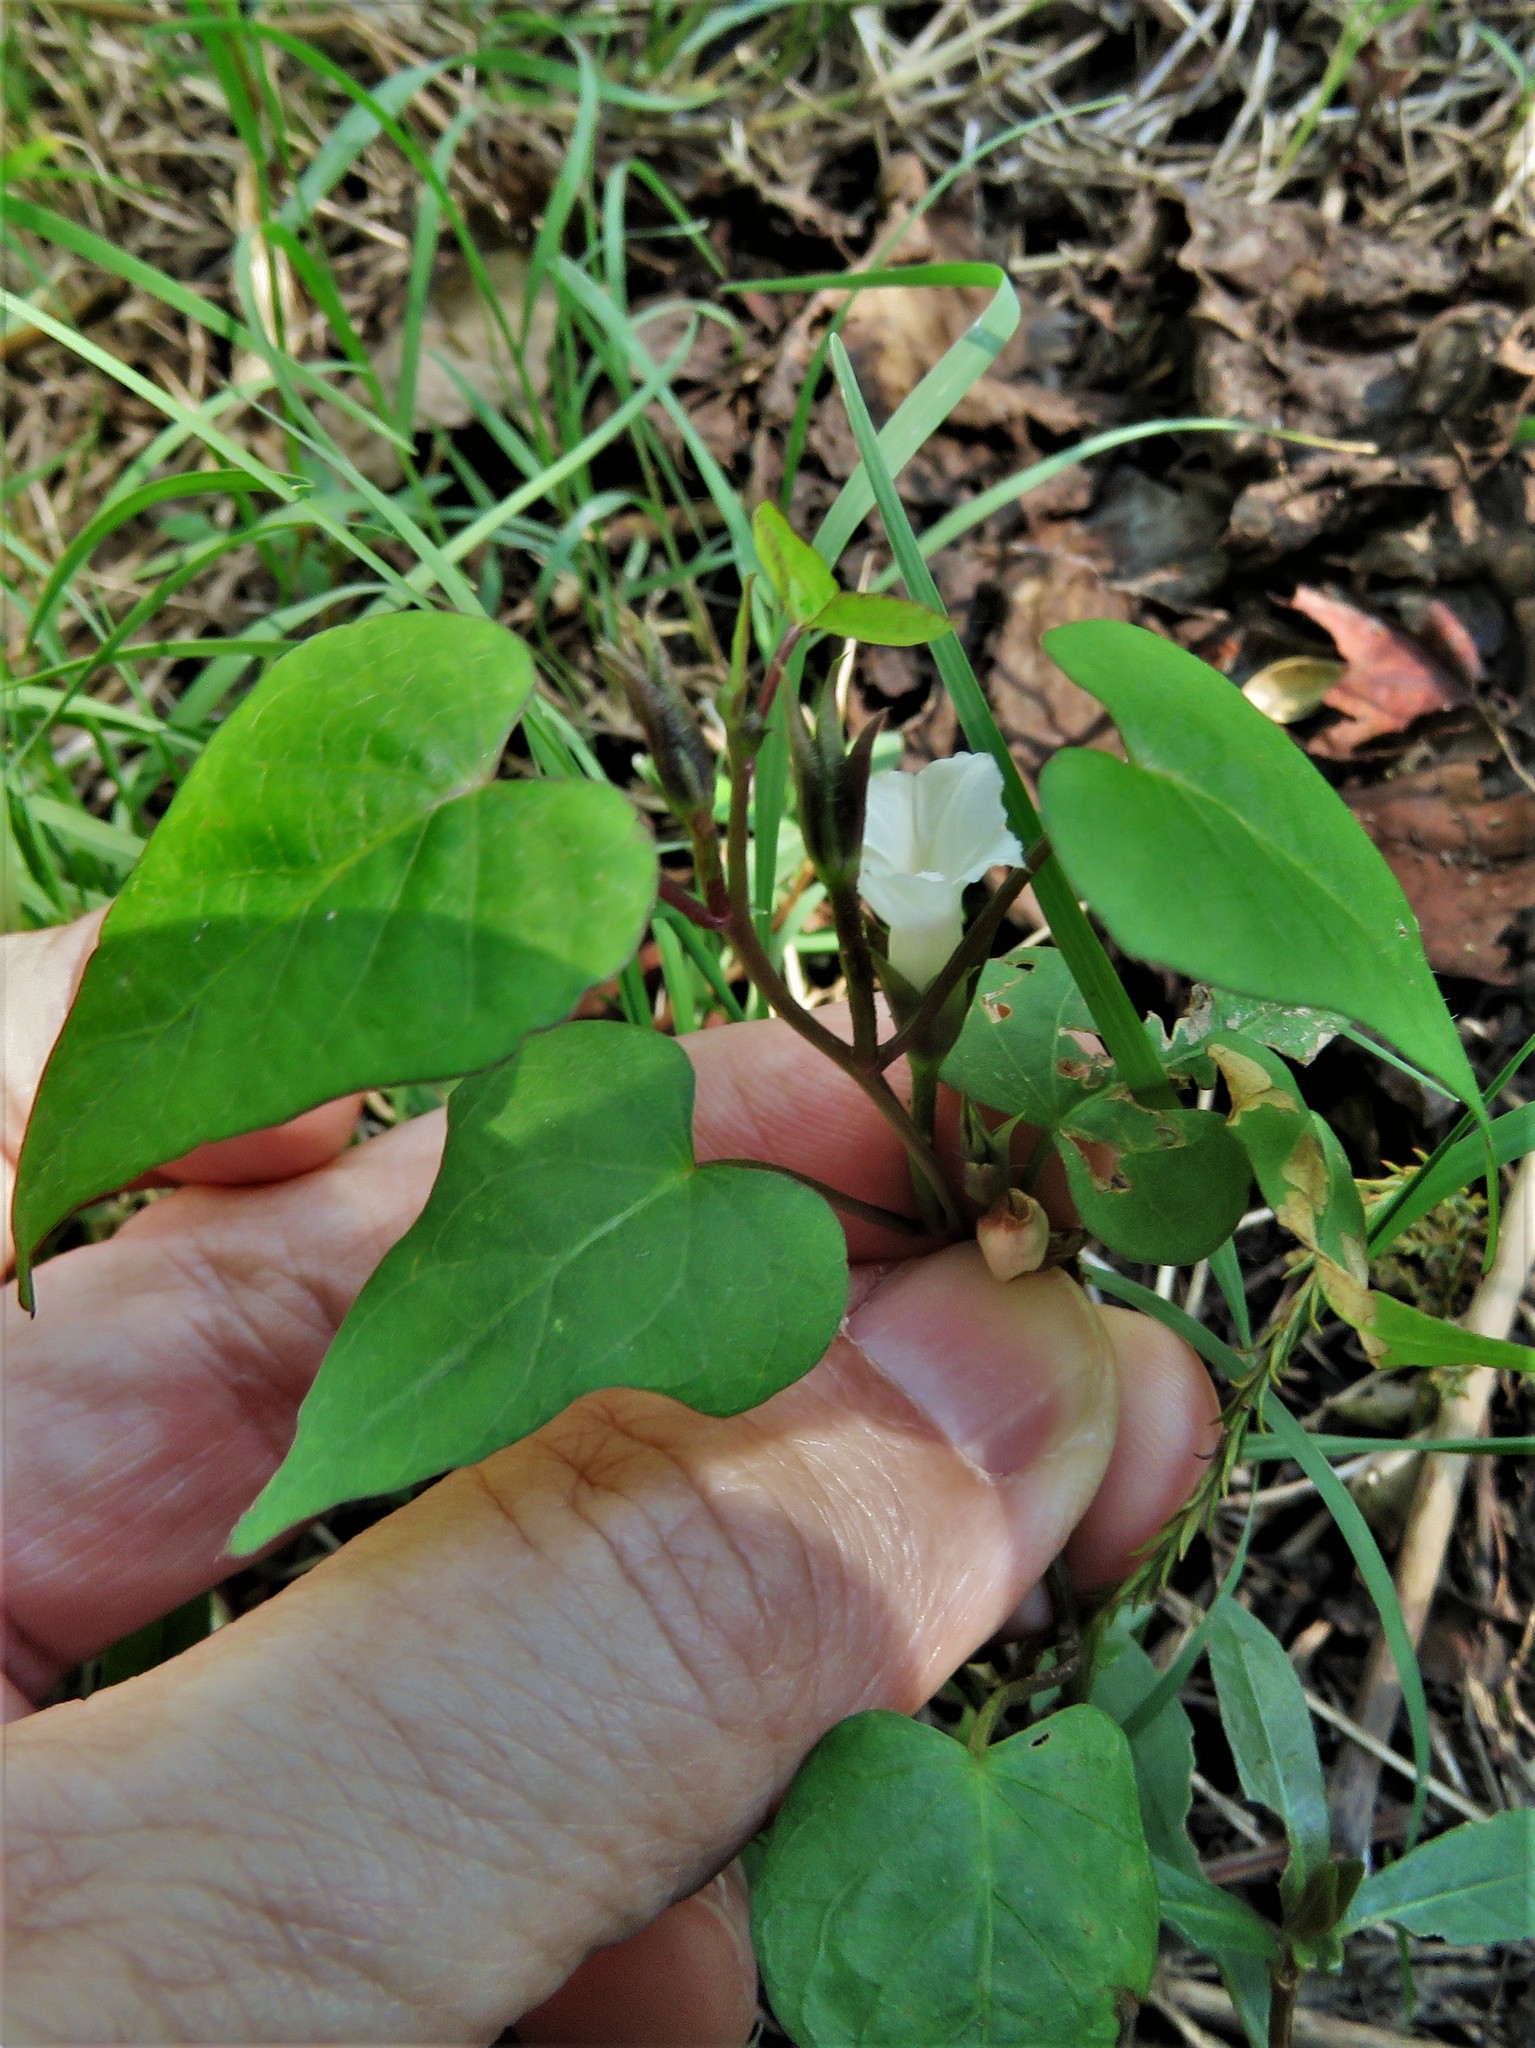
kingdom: Plantae
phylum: Tracheophyta
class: Magnoliopsida
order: Solanales
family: Convolvulaceae
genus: Ipomoea
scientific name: Ipomoea lacunosa
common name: White morning-glory
